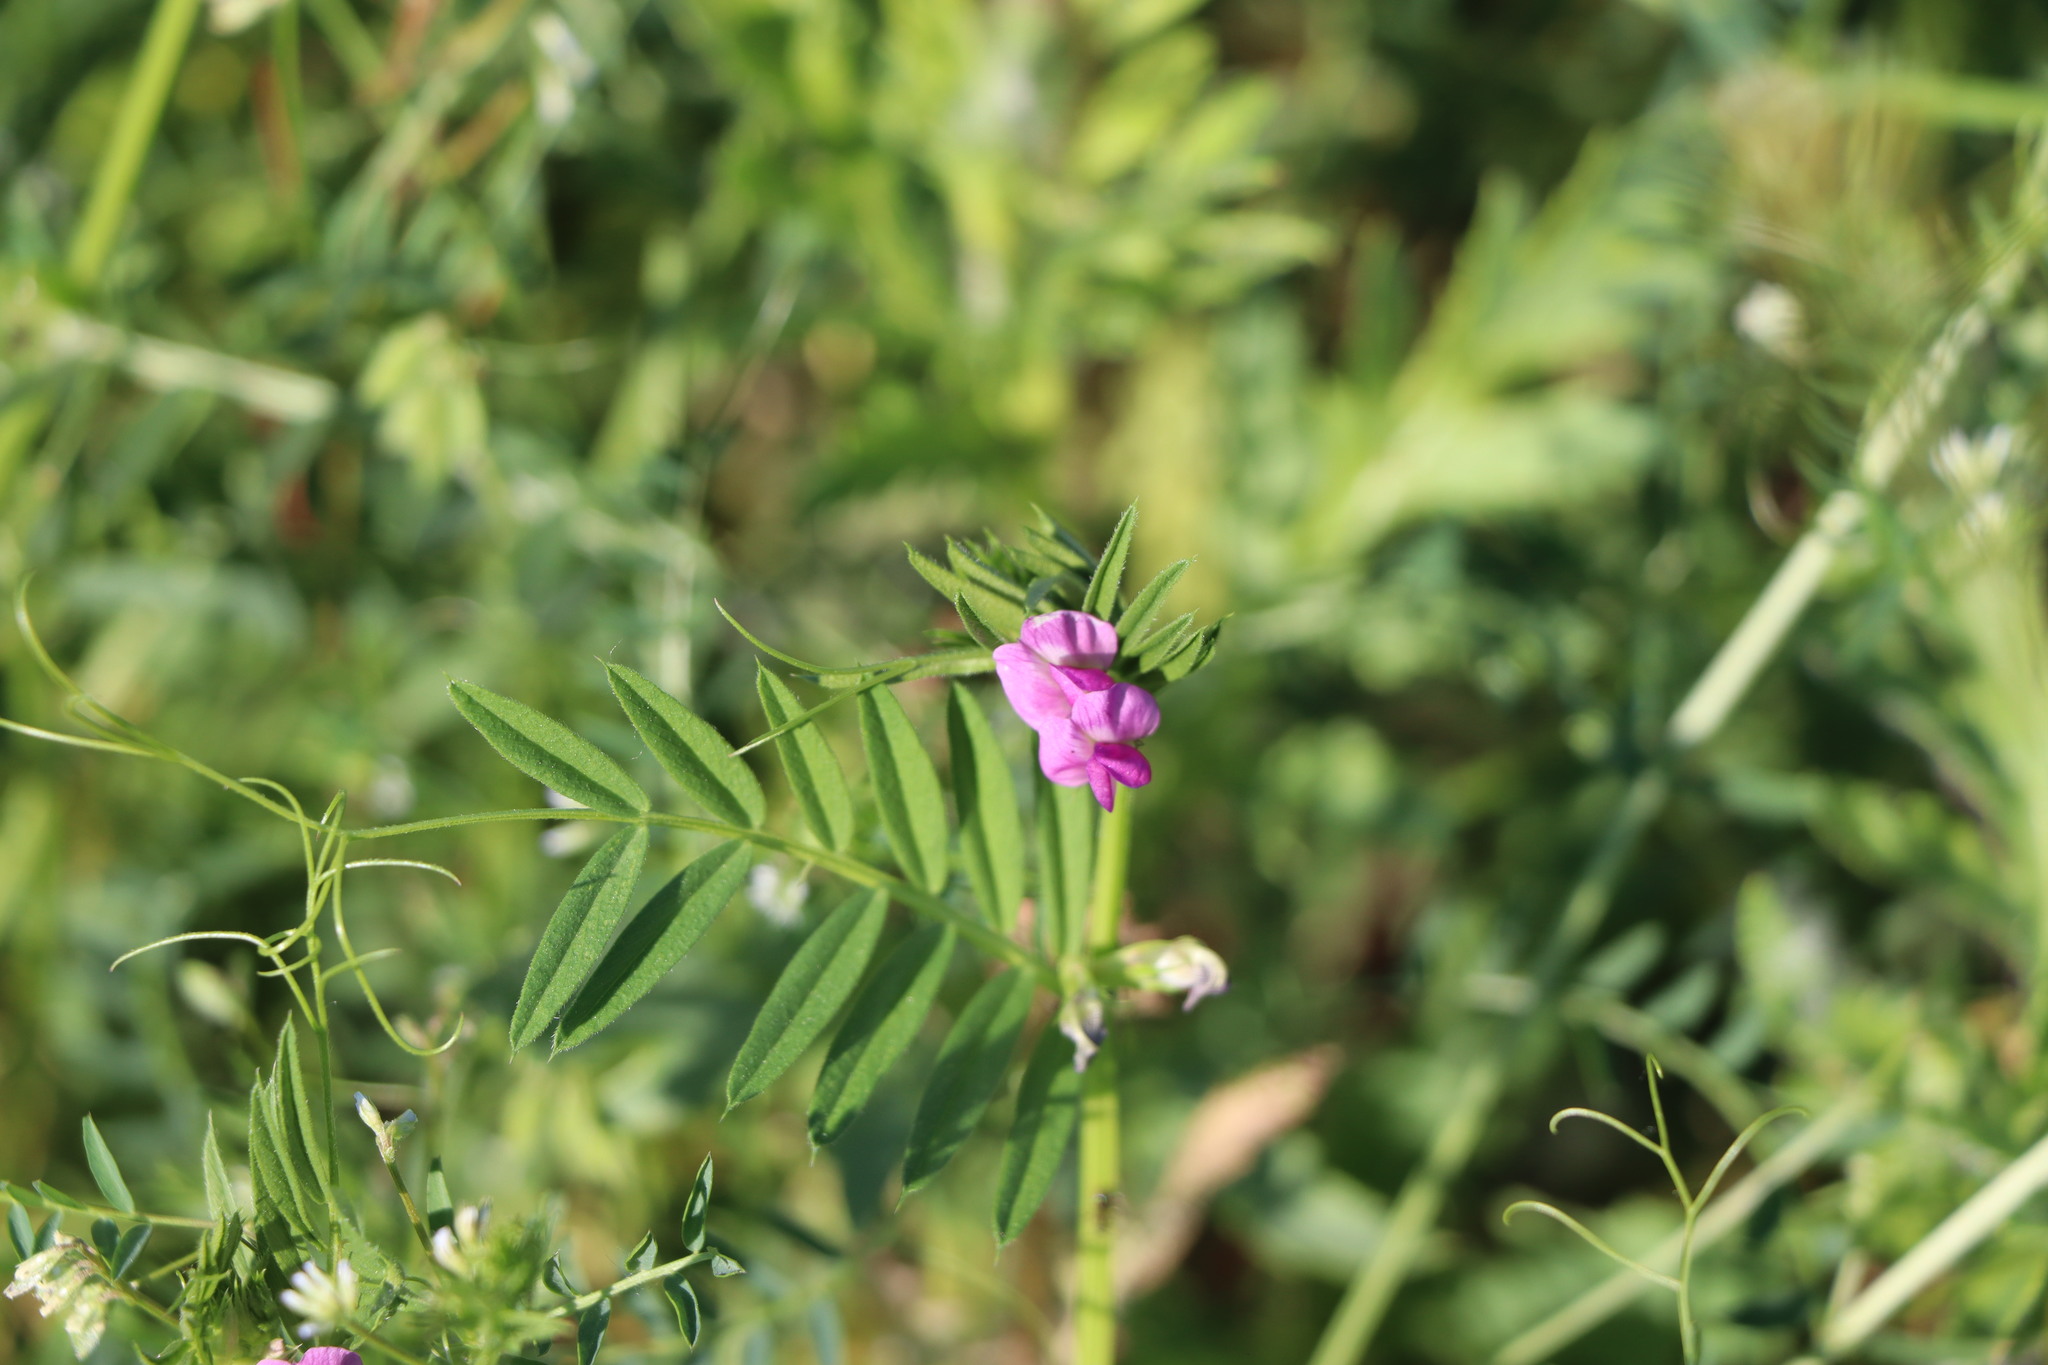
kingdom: Plantae
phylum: Tracheophyta
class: Magnoliopsida
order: Fabales
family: Fabaceae
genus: Vicia
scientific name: Vicia sativa
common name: Garden vetch
